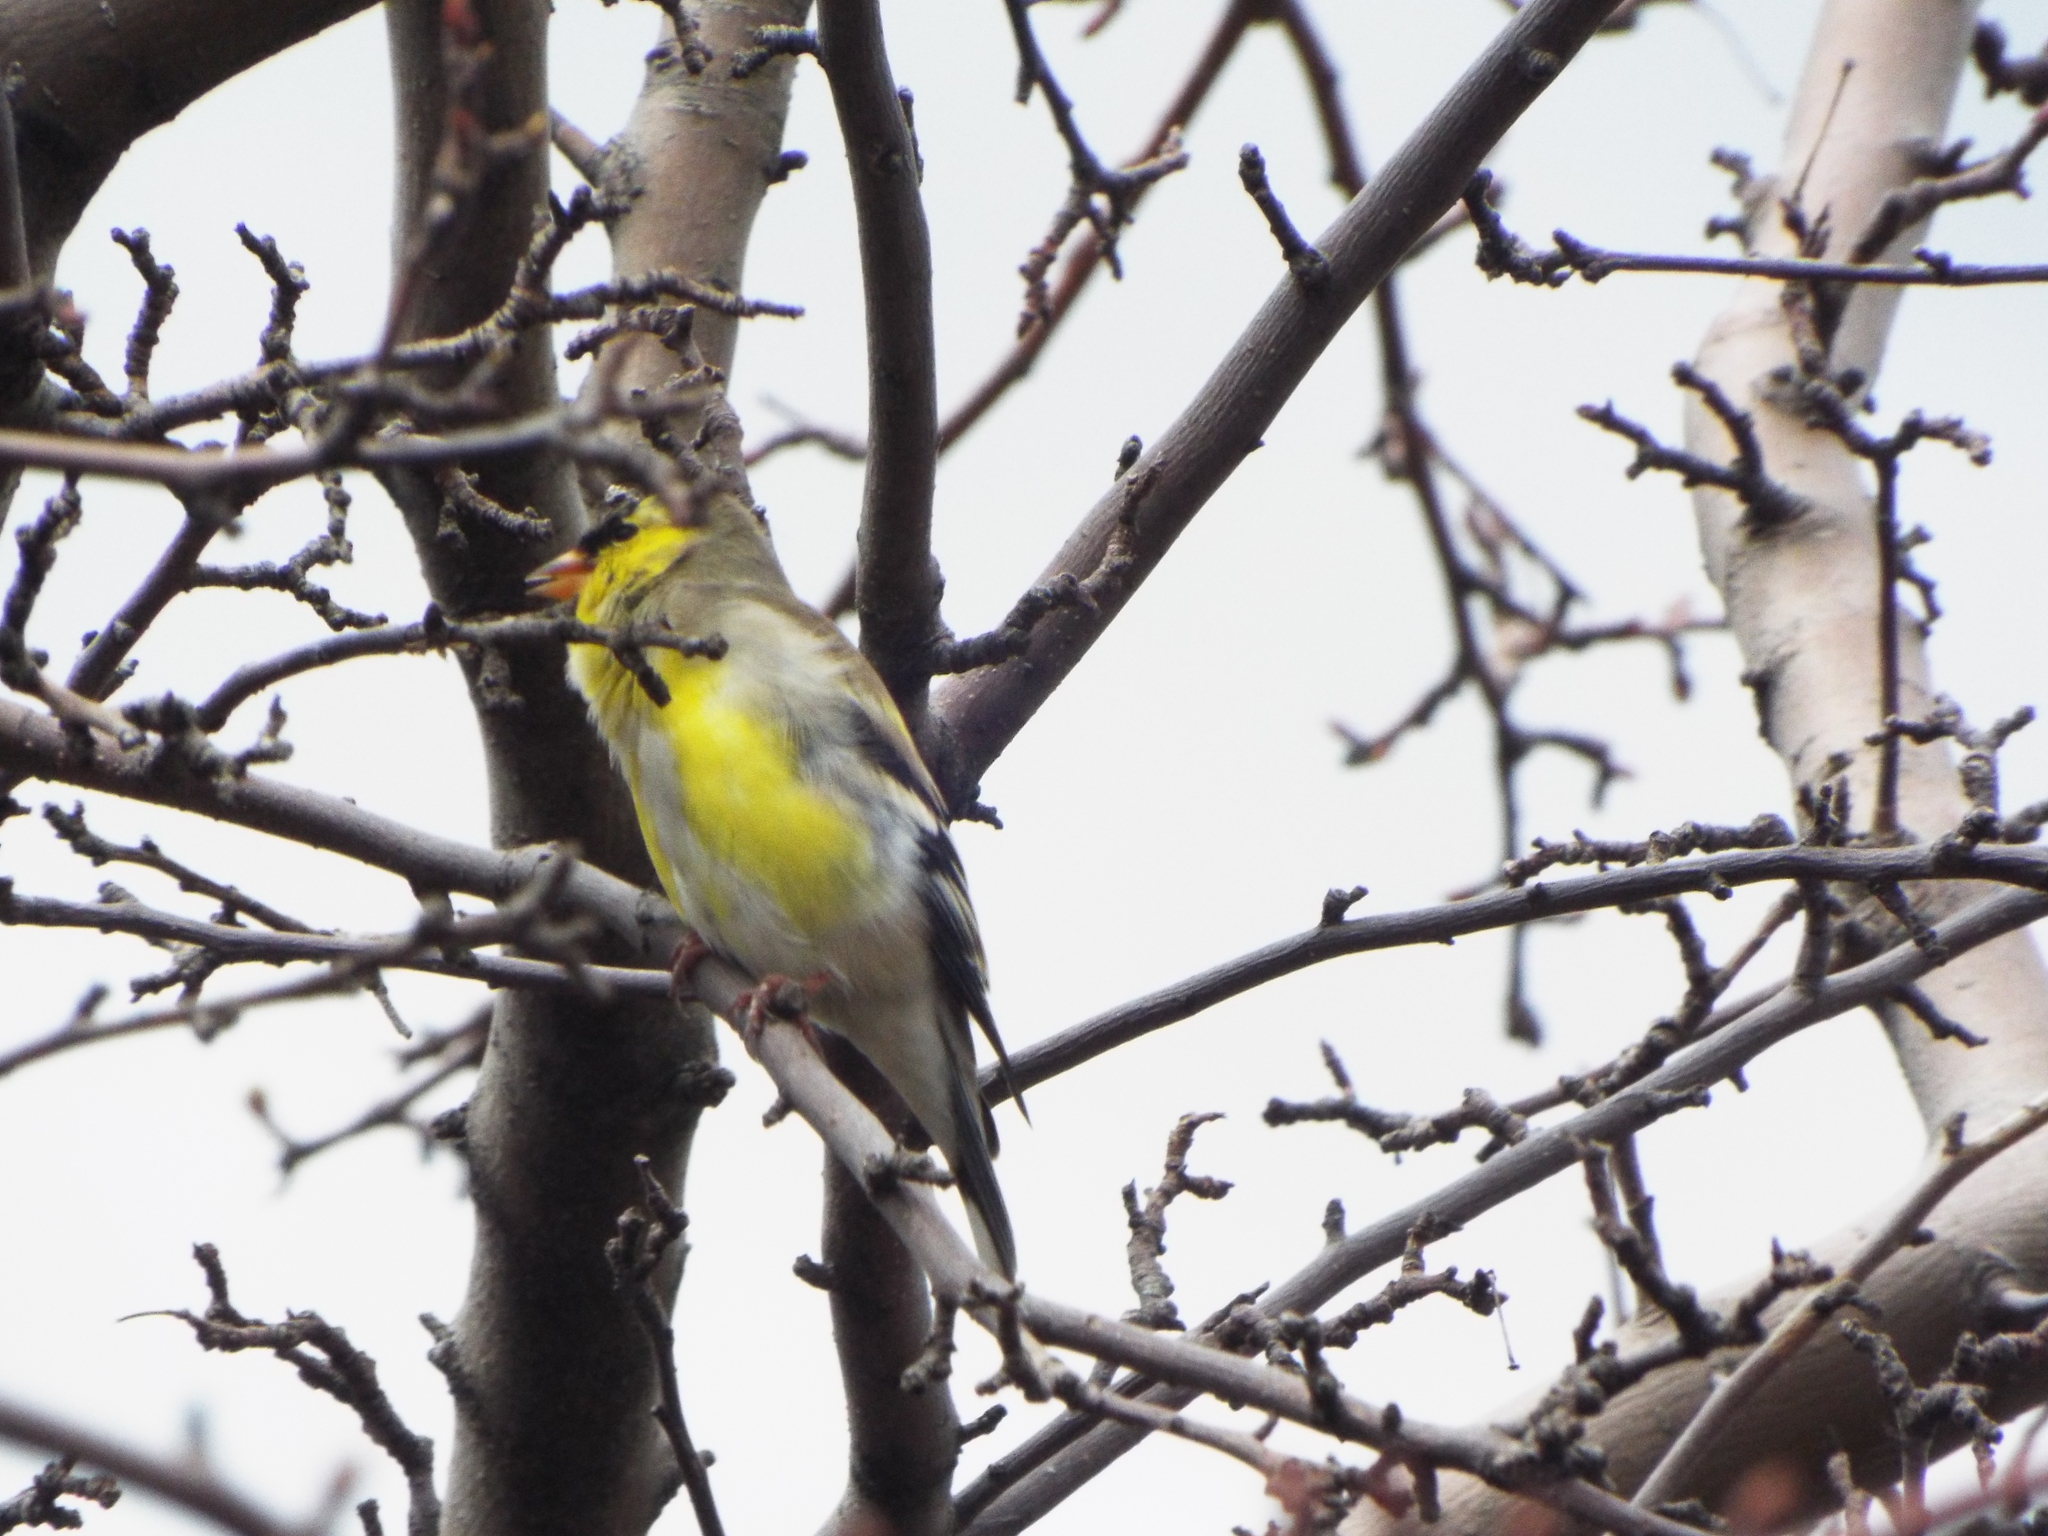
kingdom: Animalia
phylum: Chordata
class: Aves
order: Passeriformes
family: Fringillidae
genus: Spinus
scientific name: Spinus tristis
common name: American goldfinch
